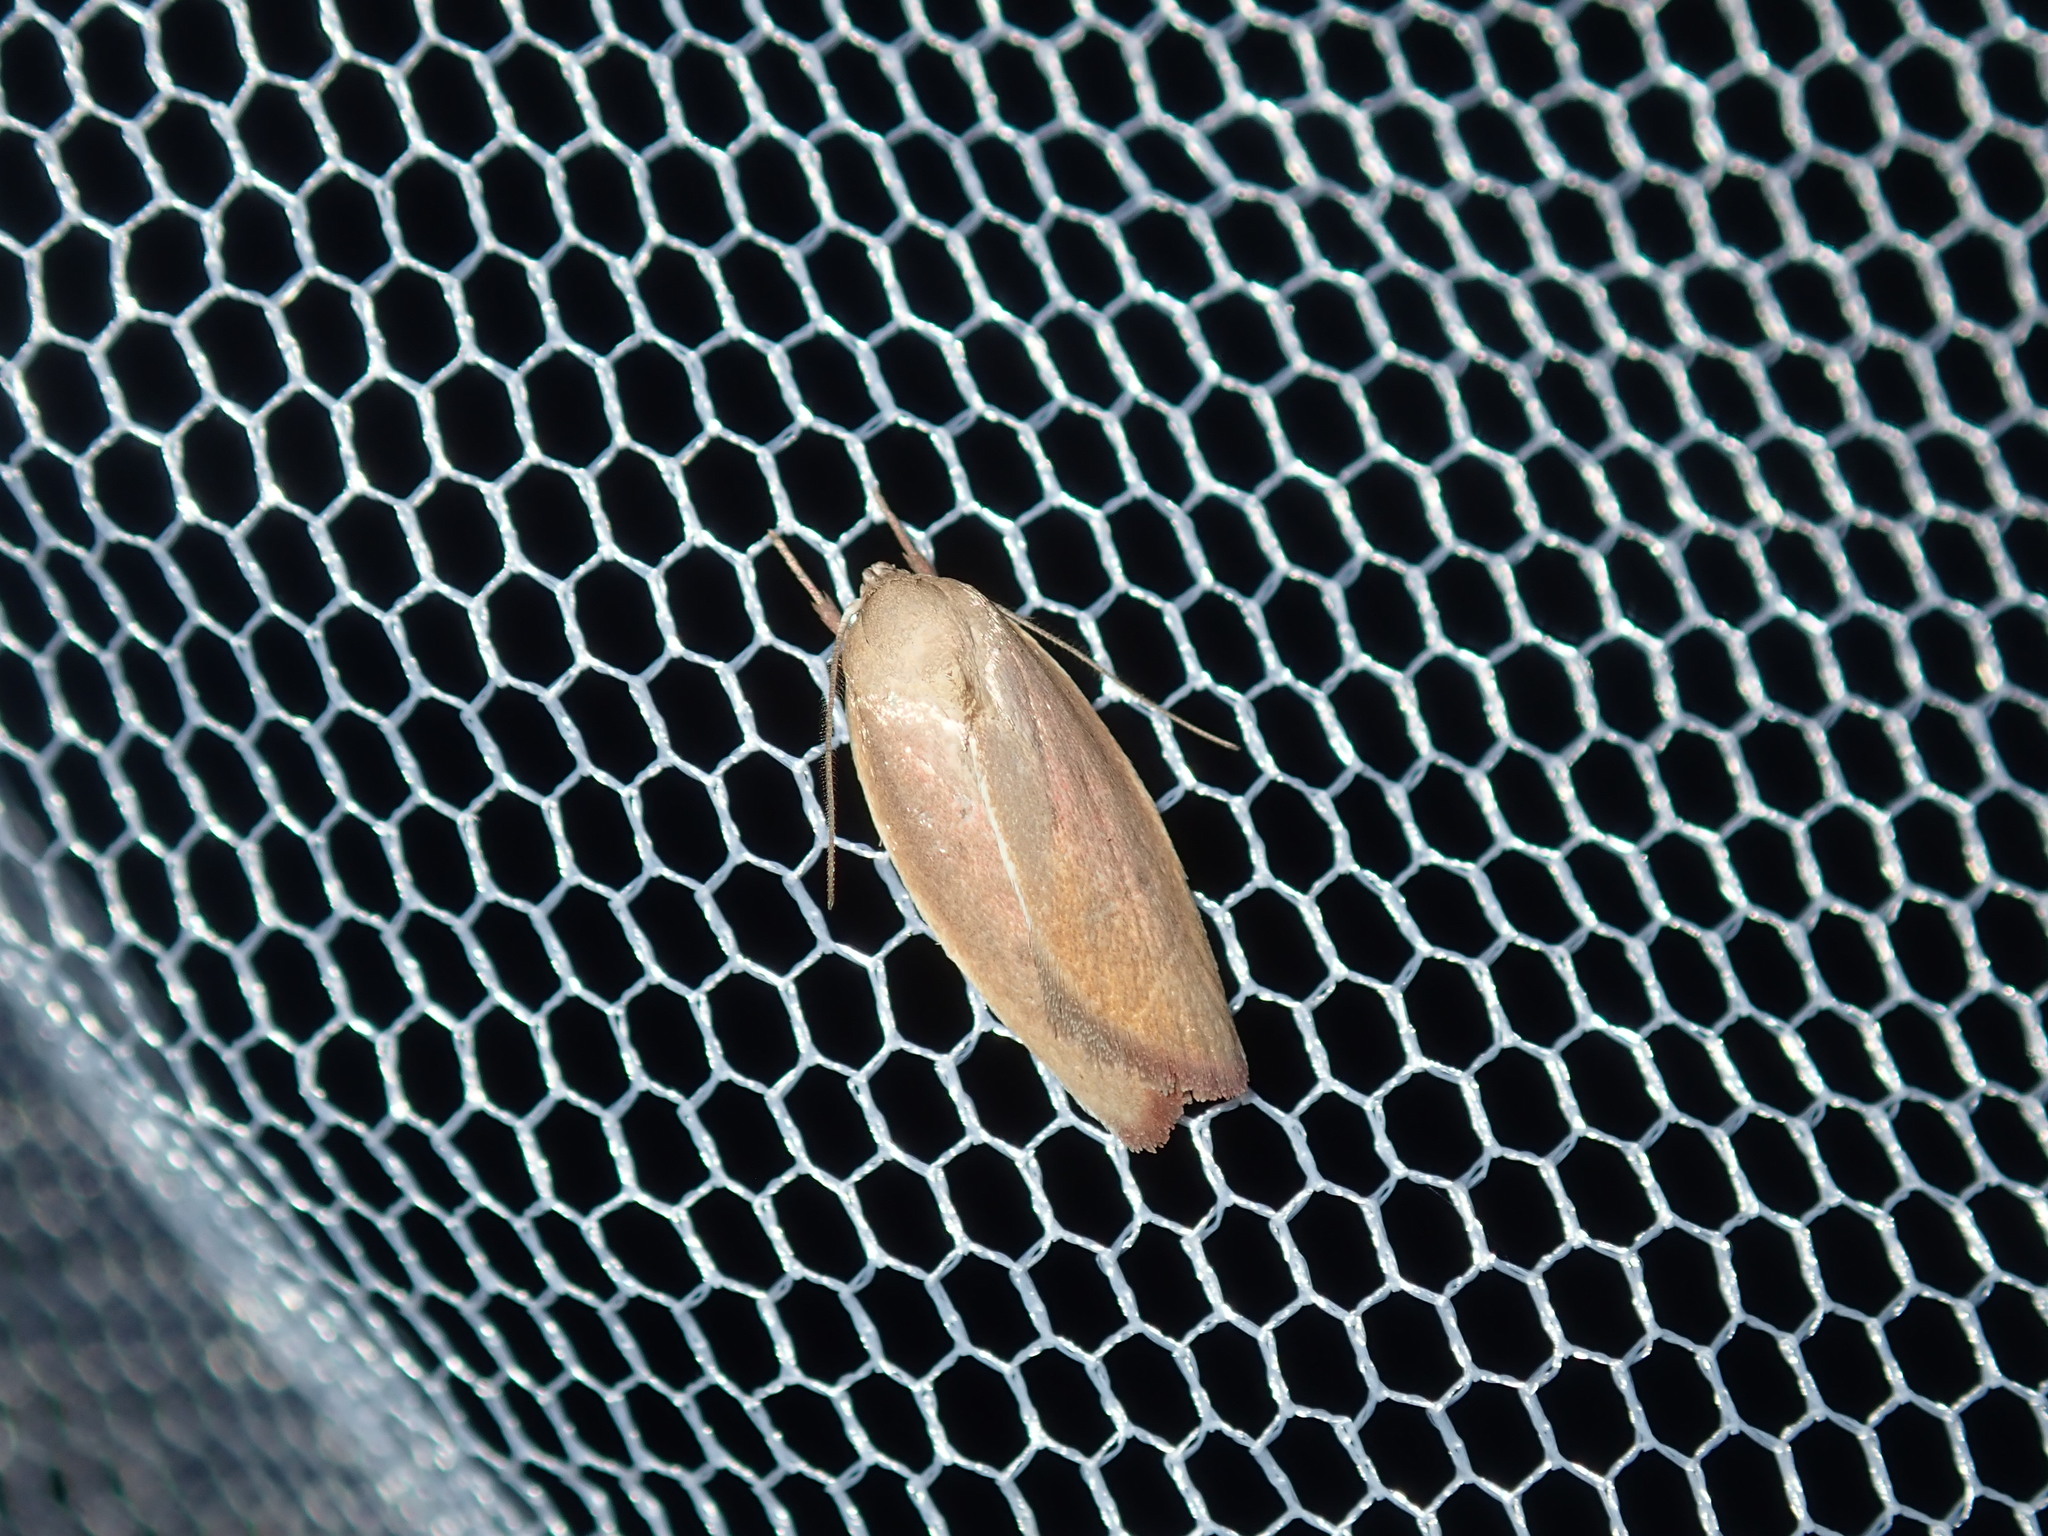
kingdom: Animalia
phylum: Arthropoda
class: Insecta
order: Lepidoptera
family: Oecophoridae
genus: Ptyoptila
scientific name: Ptyoptila matutinella
